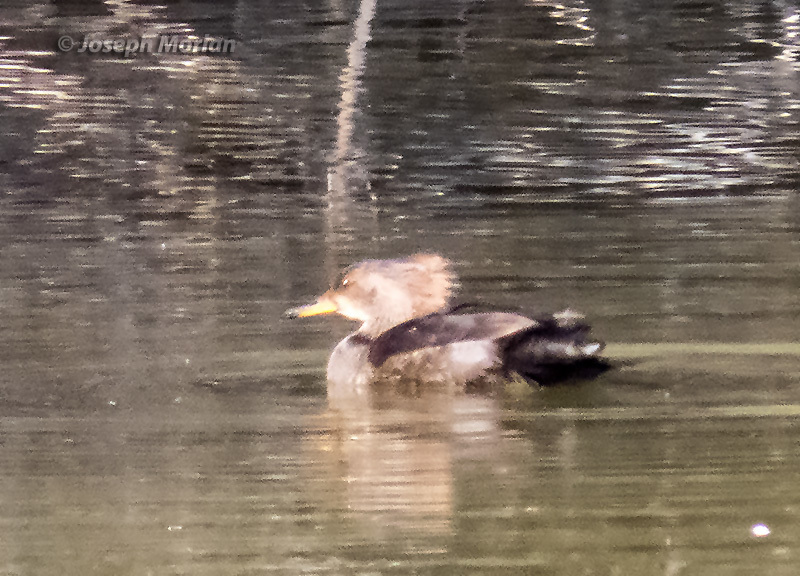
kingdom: Animalia
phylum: Chordata
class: Aves
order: Anseriformes
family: Anatidae
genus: Lophodytes
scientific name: Lophodytes cucullatus
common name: Hooded merganser
